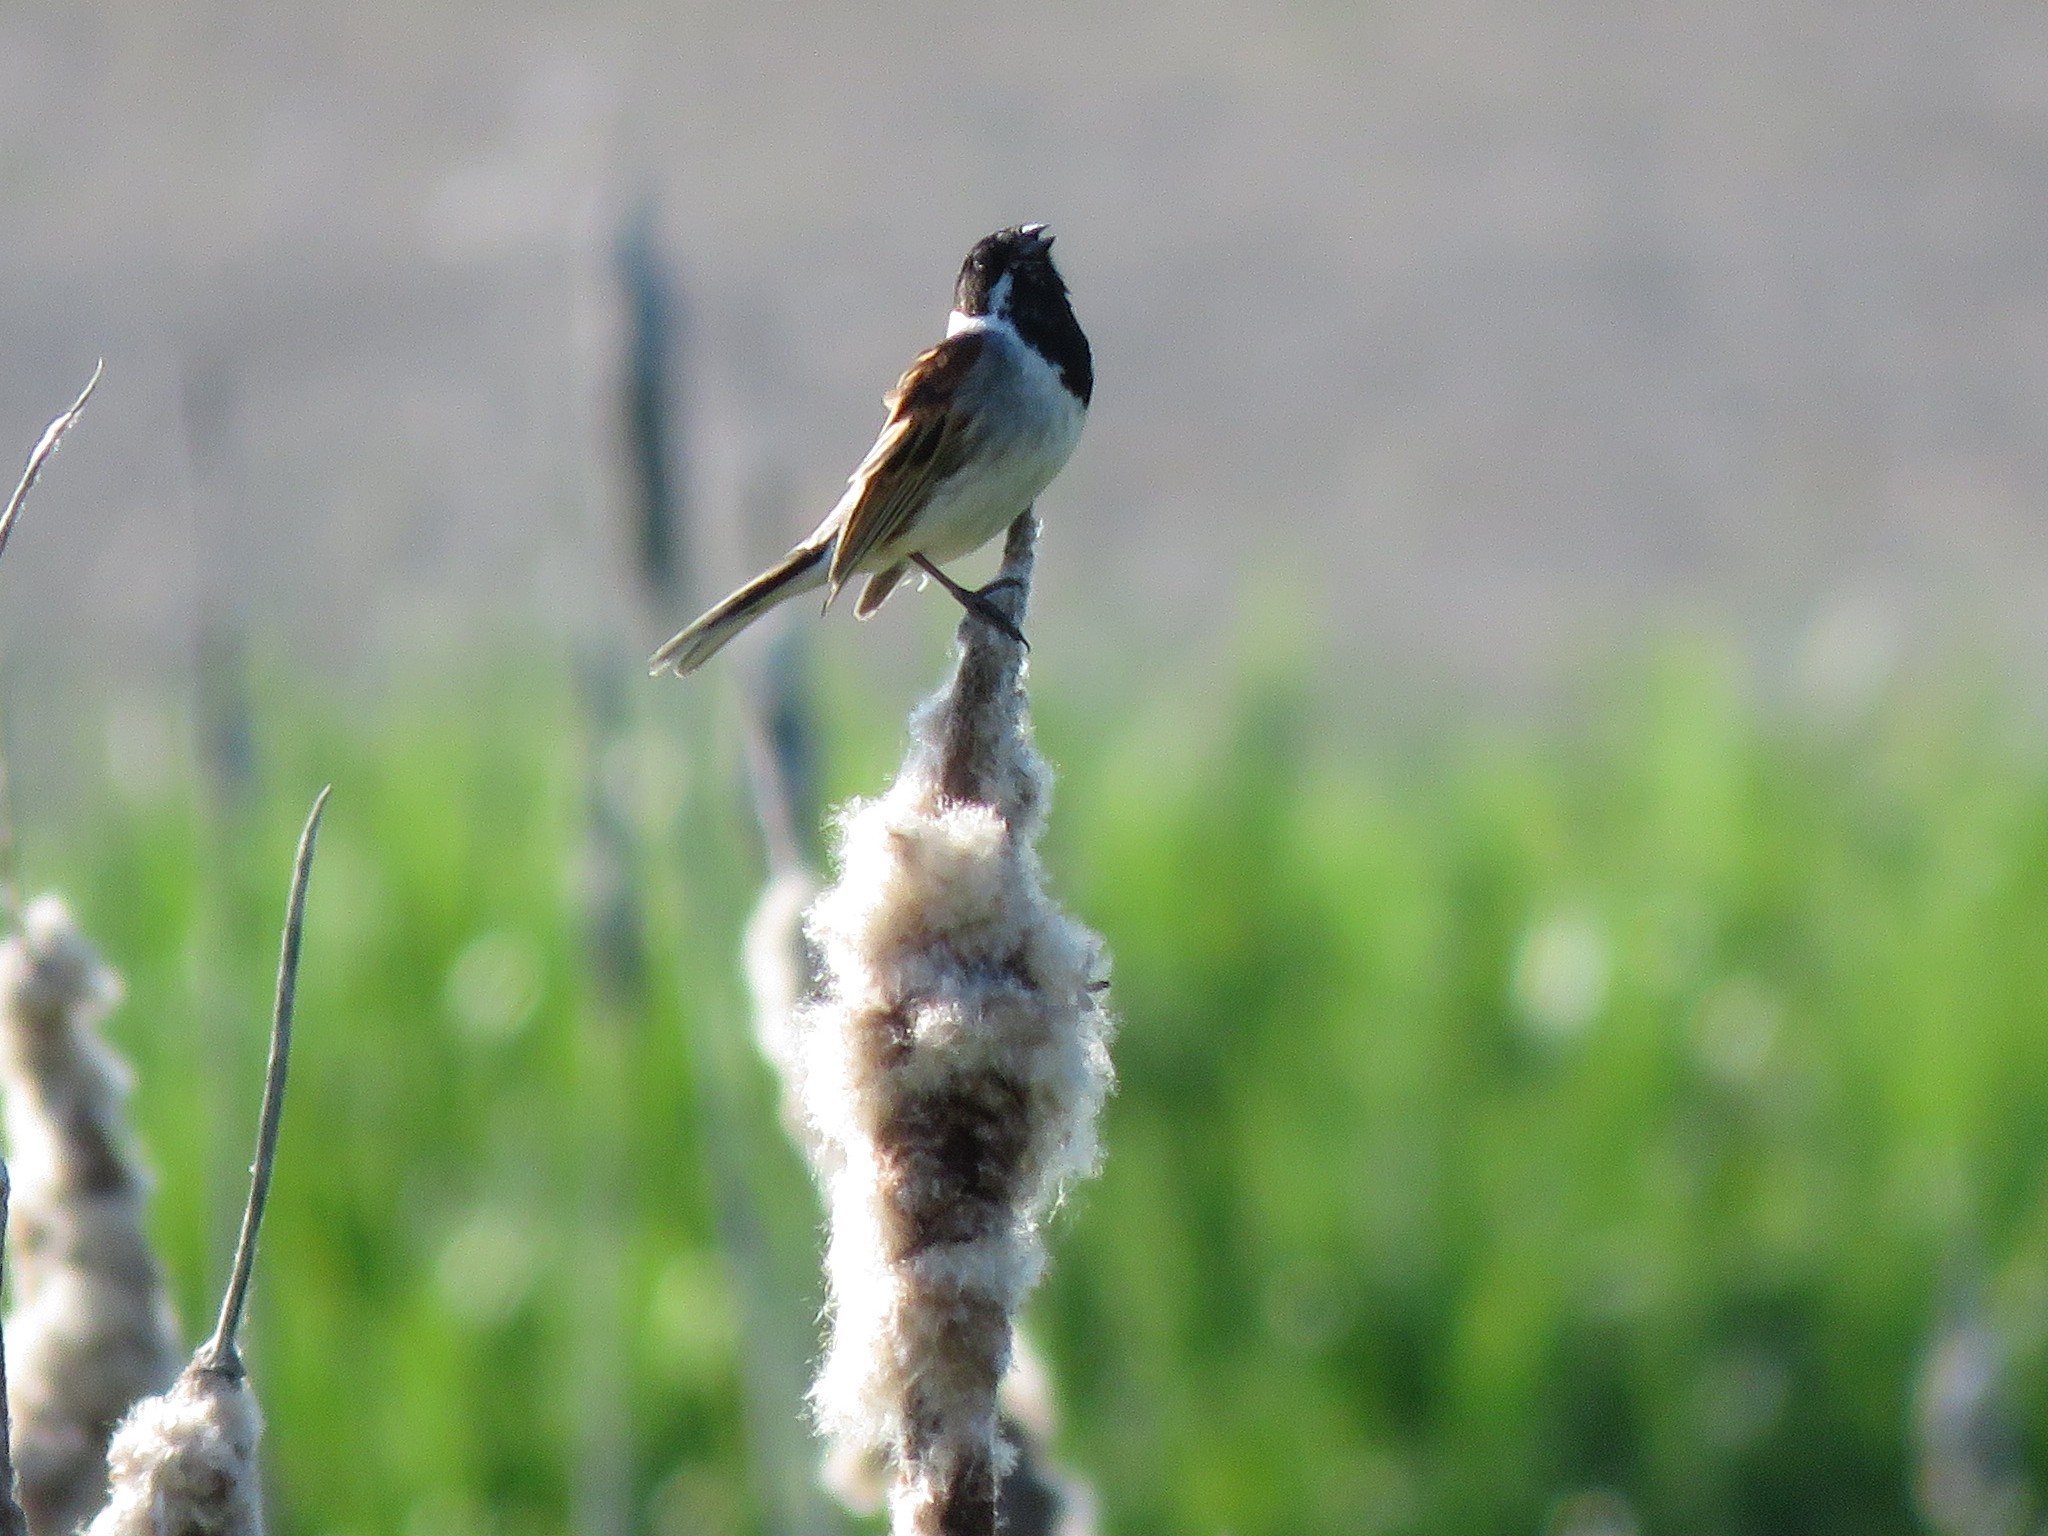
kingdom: Animalia
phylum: Chordata
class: Aves
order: Passeriformes
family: Emberizidae
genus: Emberiza
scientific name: Emberiza schoeniclus
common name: Reed bunting
